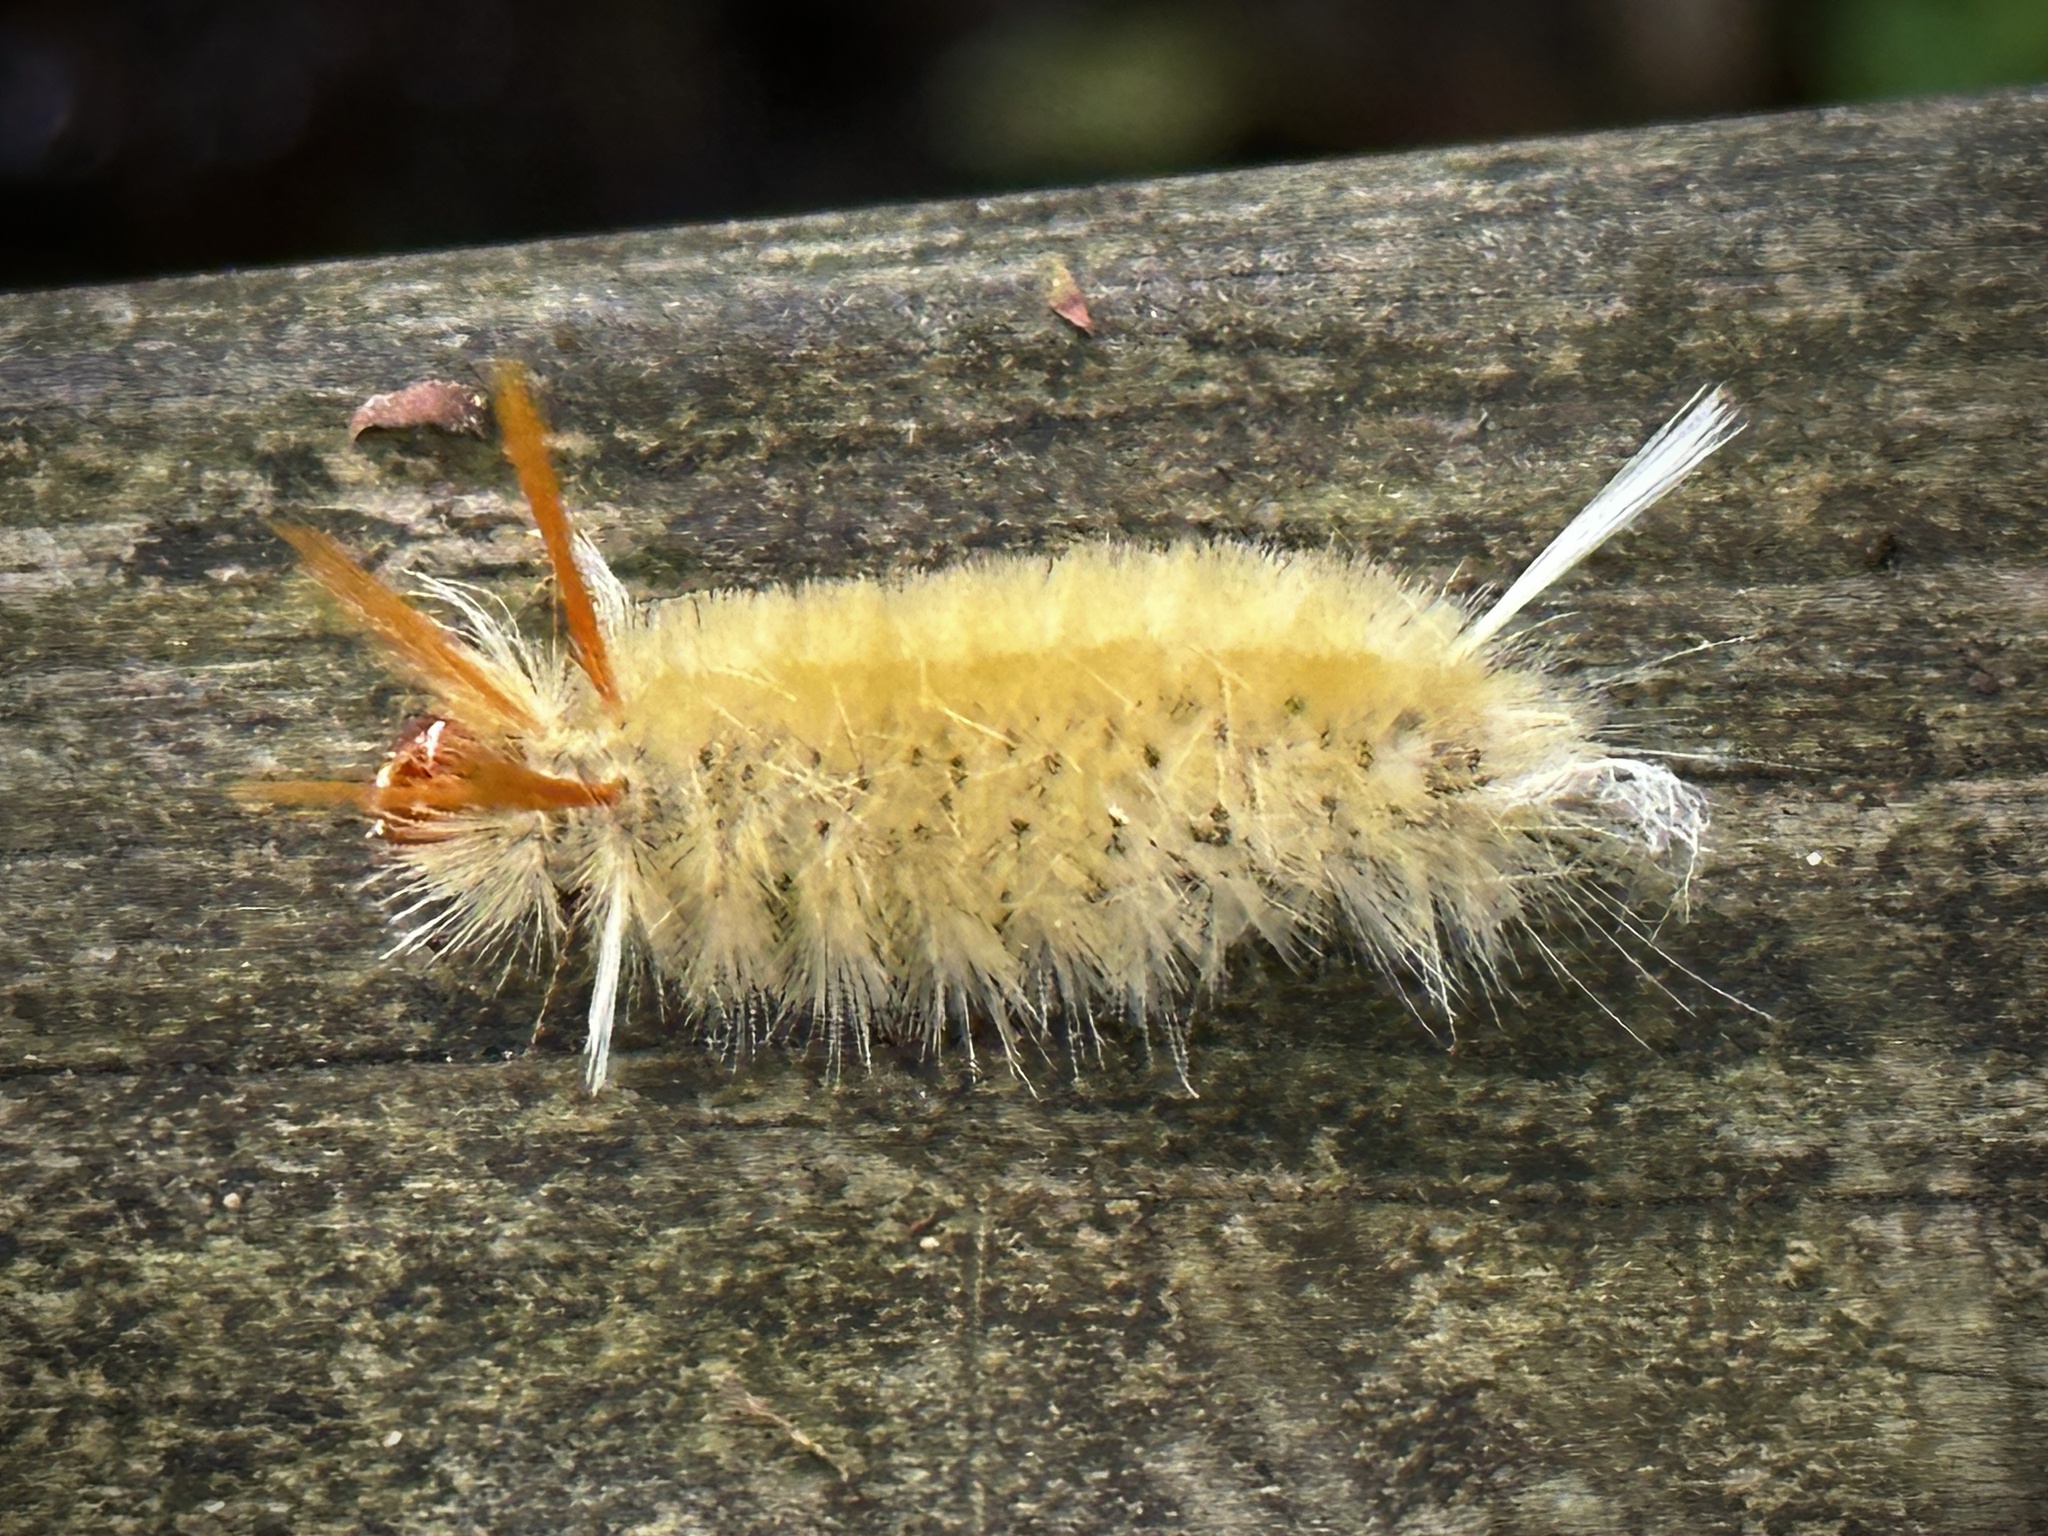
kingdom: Animalia
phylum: Arthropoda
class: Insecta
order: Lepidoptera
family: Erebidae
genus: Halysidota
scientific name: Halysidota harrisii
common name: Sycamore tussock moth
